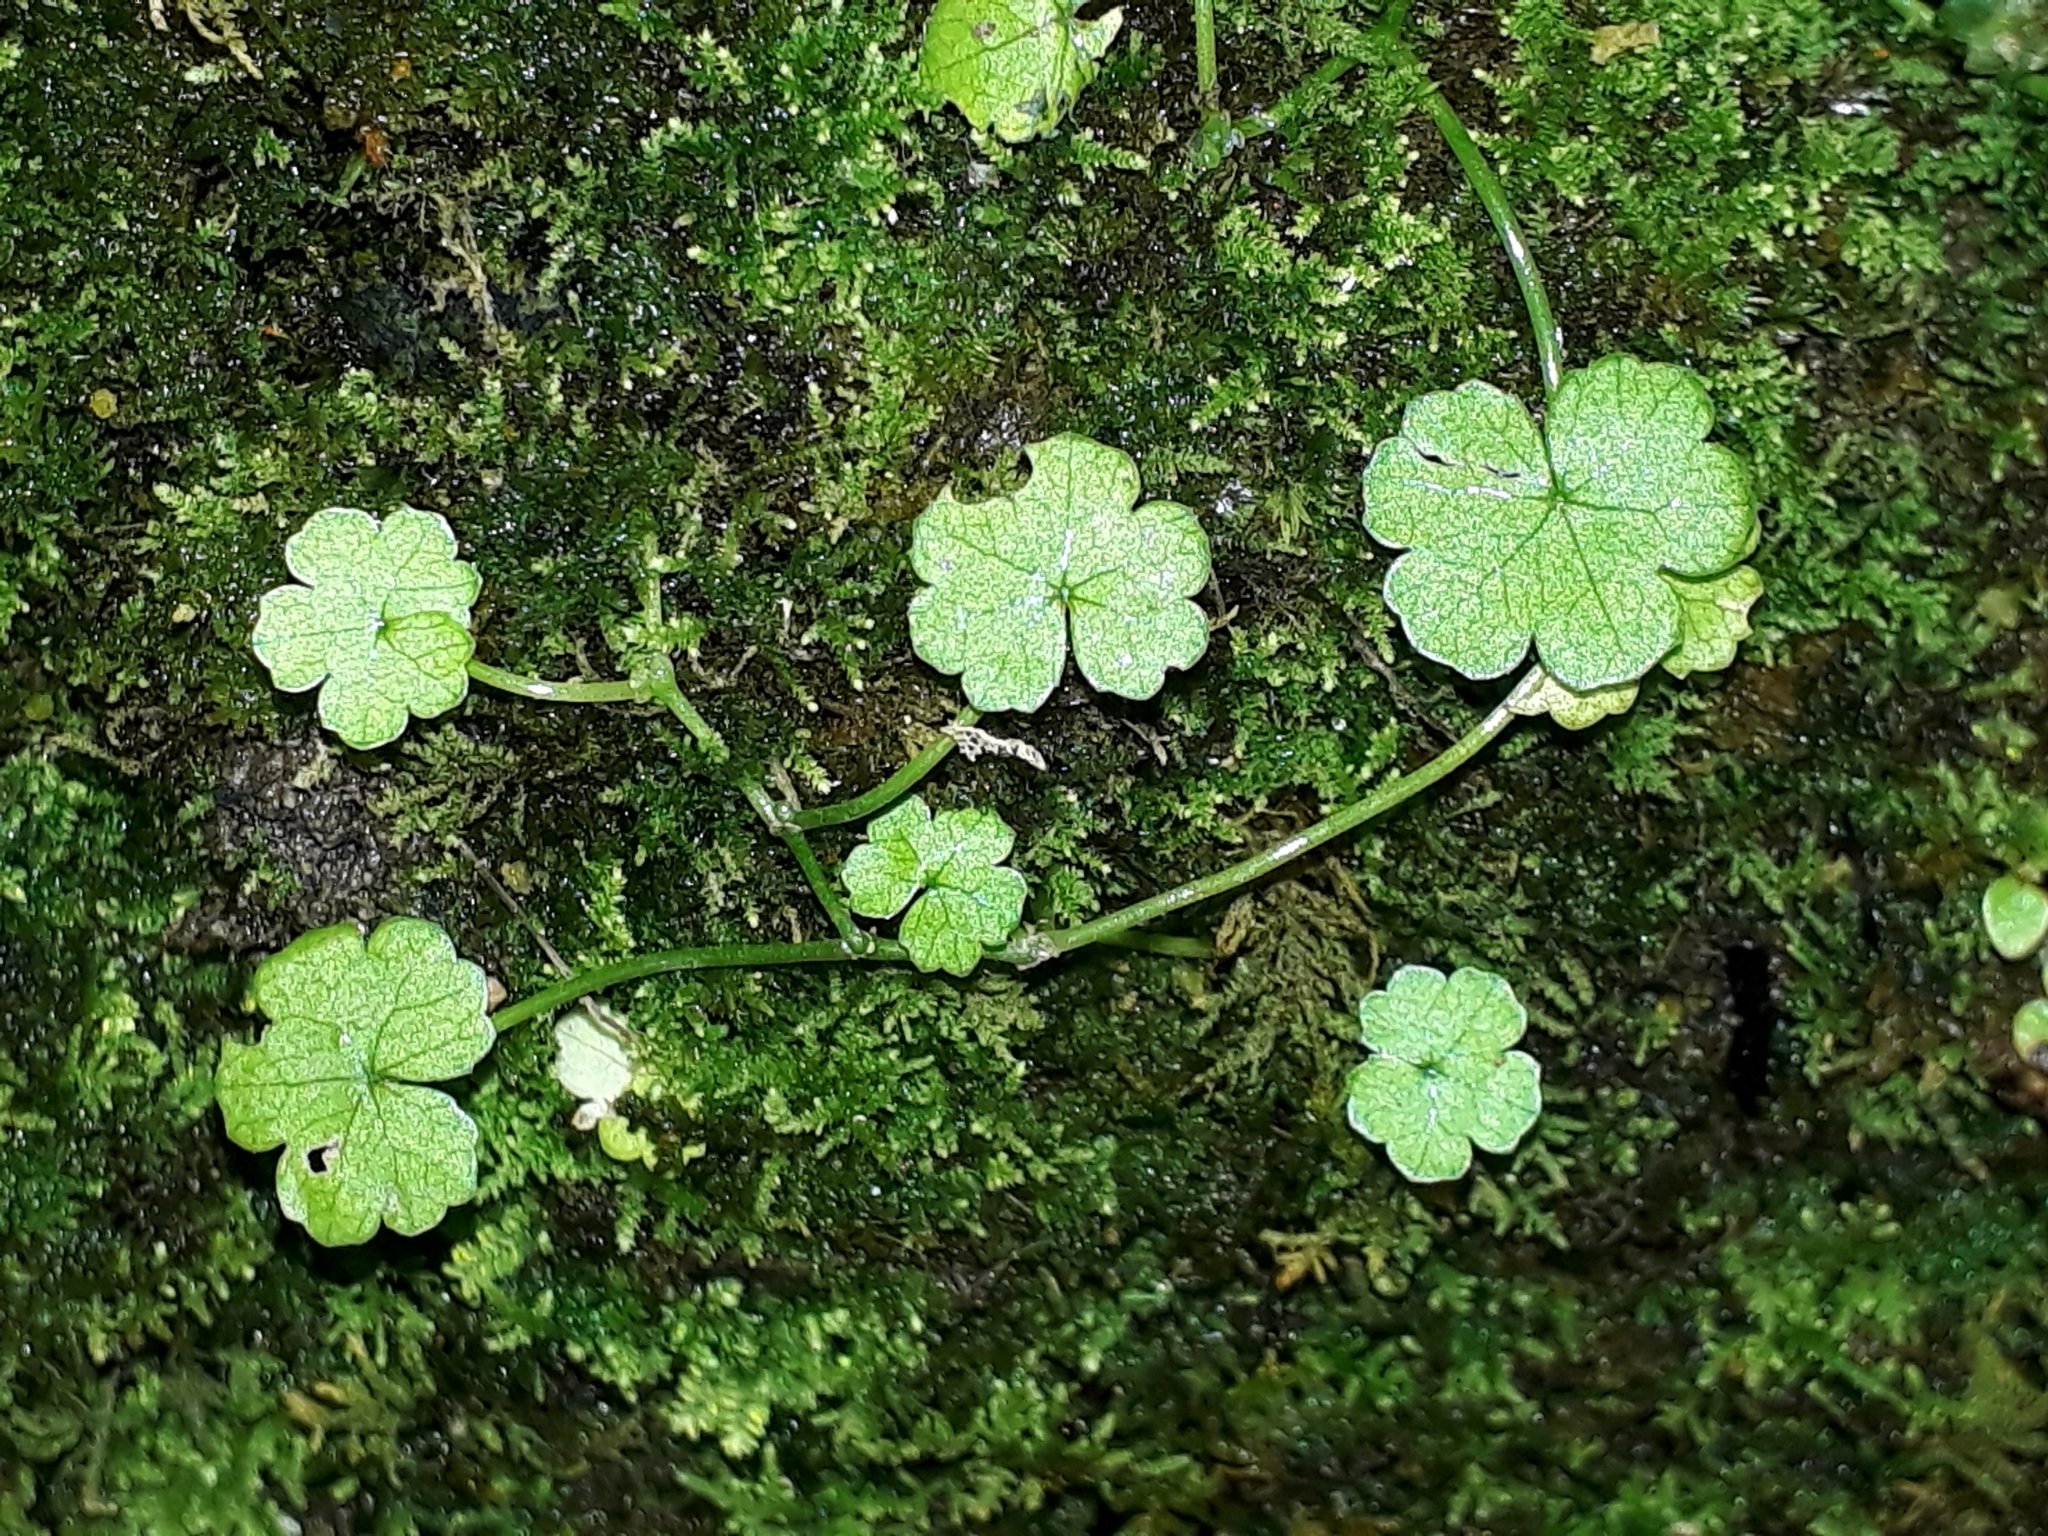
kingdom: Plantae
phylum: Tracheophyta
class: Magnoliopsida
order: Apiales
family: Araliaceae
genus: Hydrocotyle
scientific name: Hydrocotyle heteromeria
